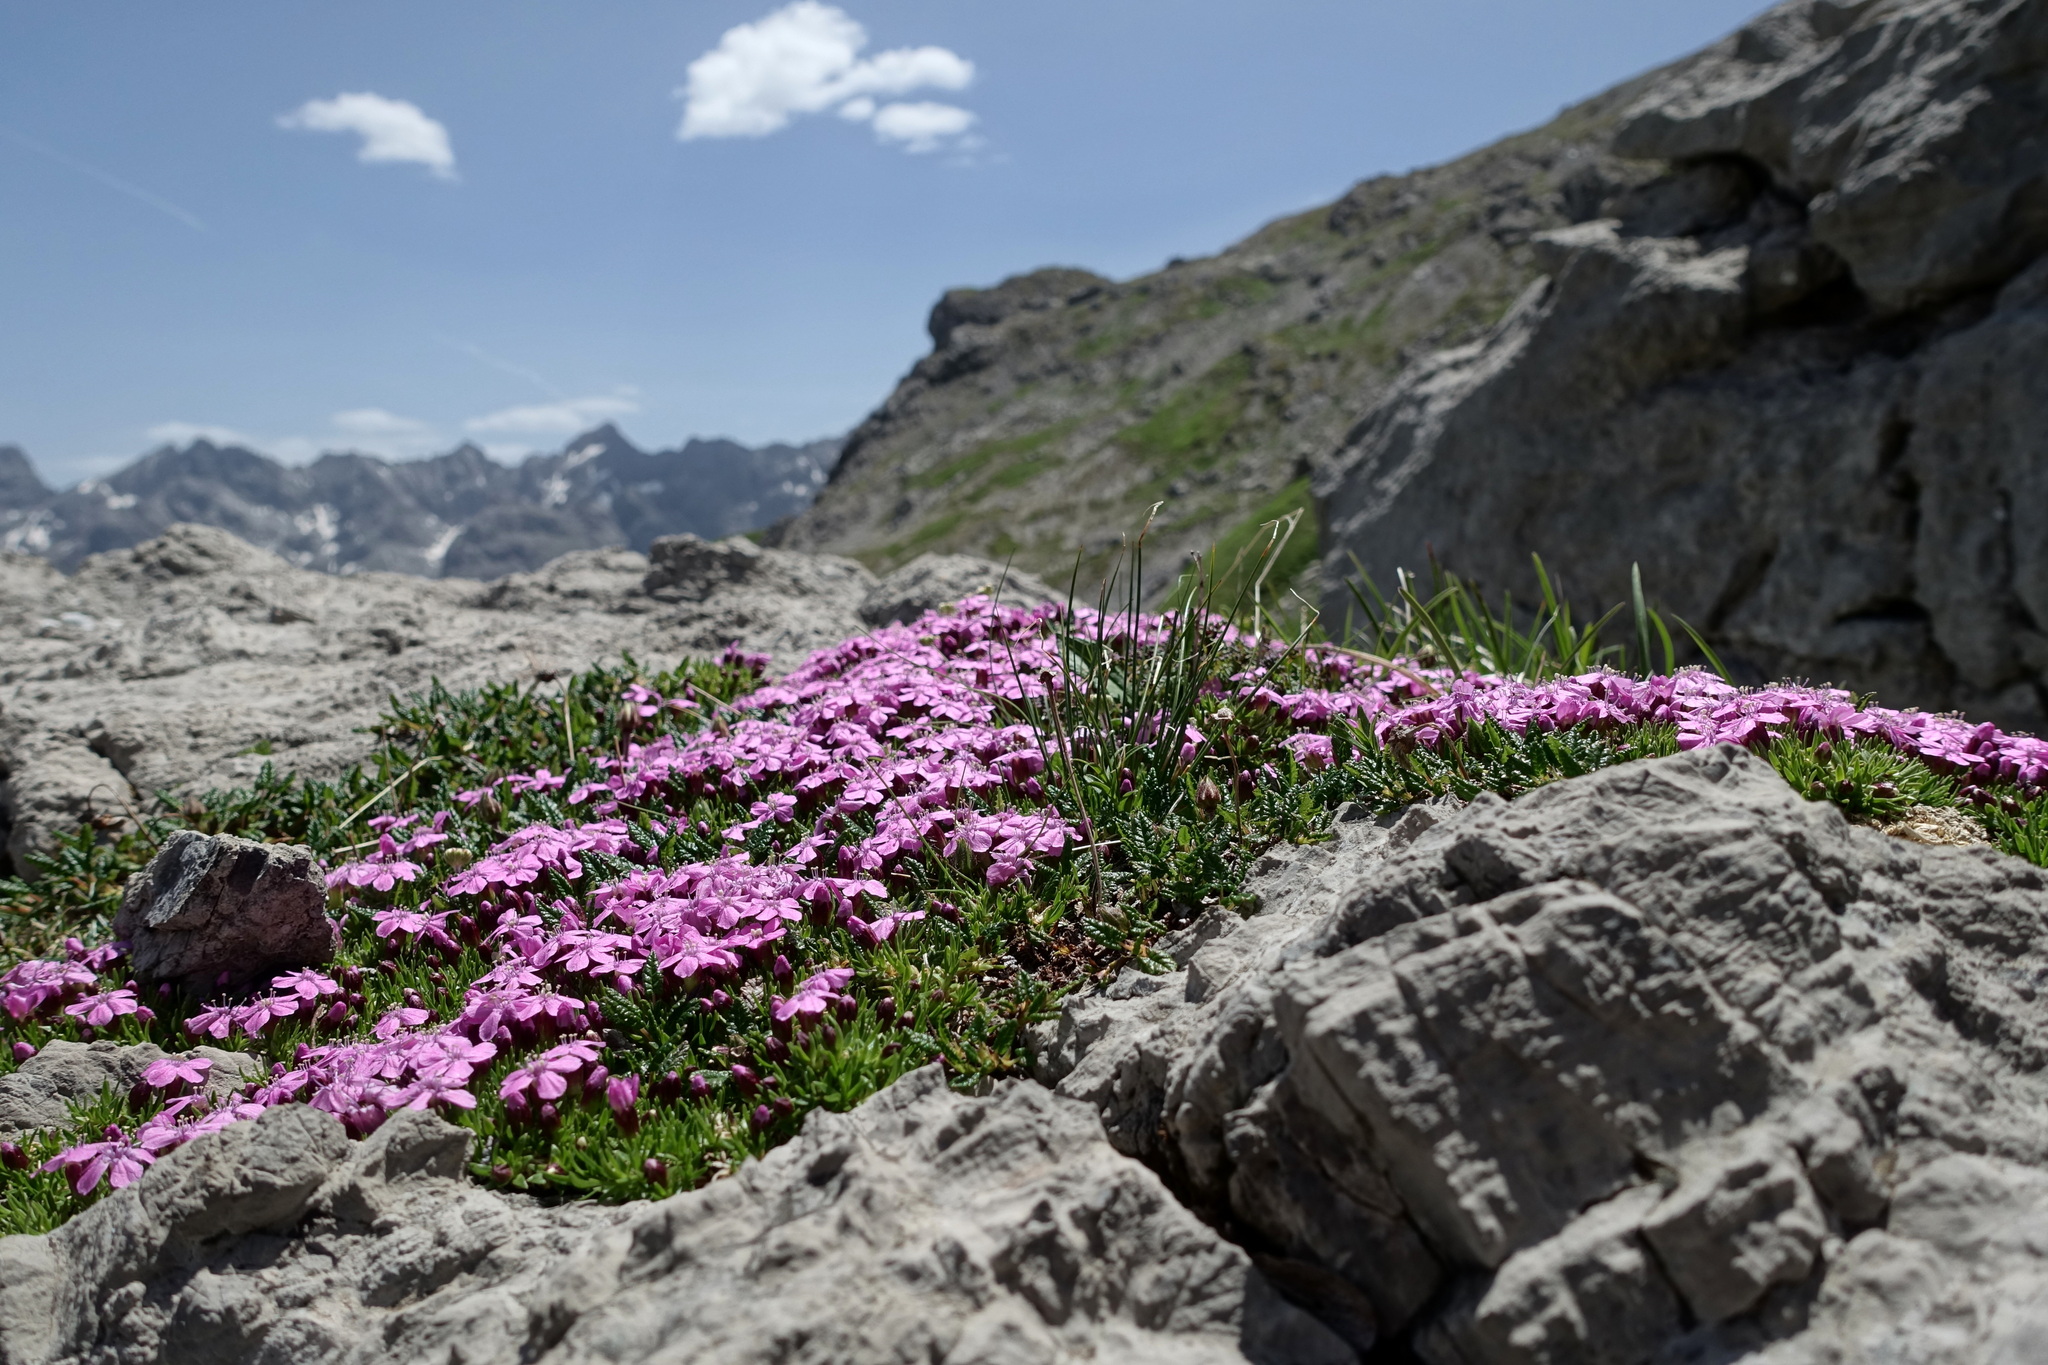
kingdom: Plantae
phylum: Tracheophyta
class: Magnoliopsida
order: Caryophyllales
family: Caryophyllaceae
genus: Silene
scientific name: Silene acaulis
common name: Moss campion
